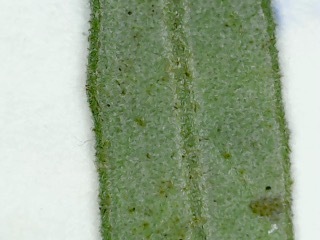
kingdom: Plantae
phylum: Tracheophyta
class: Magnoliopsida
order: Malvales
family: Cistaceae
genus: Crocanthemum
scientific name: Crocanthemum rosmarinifolium
